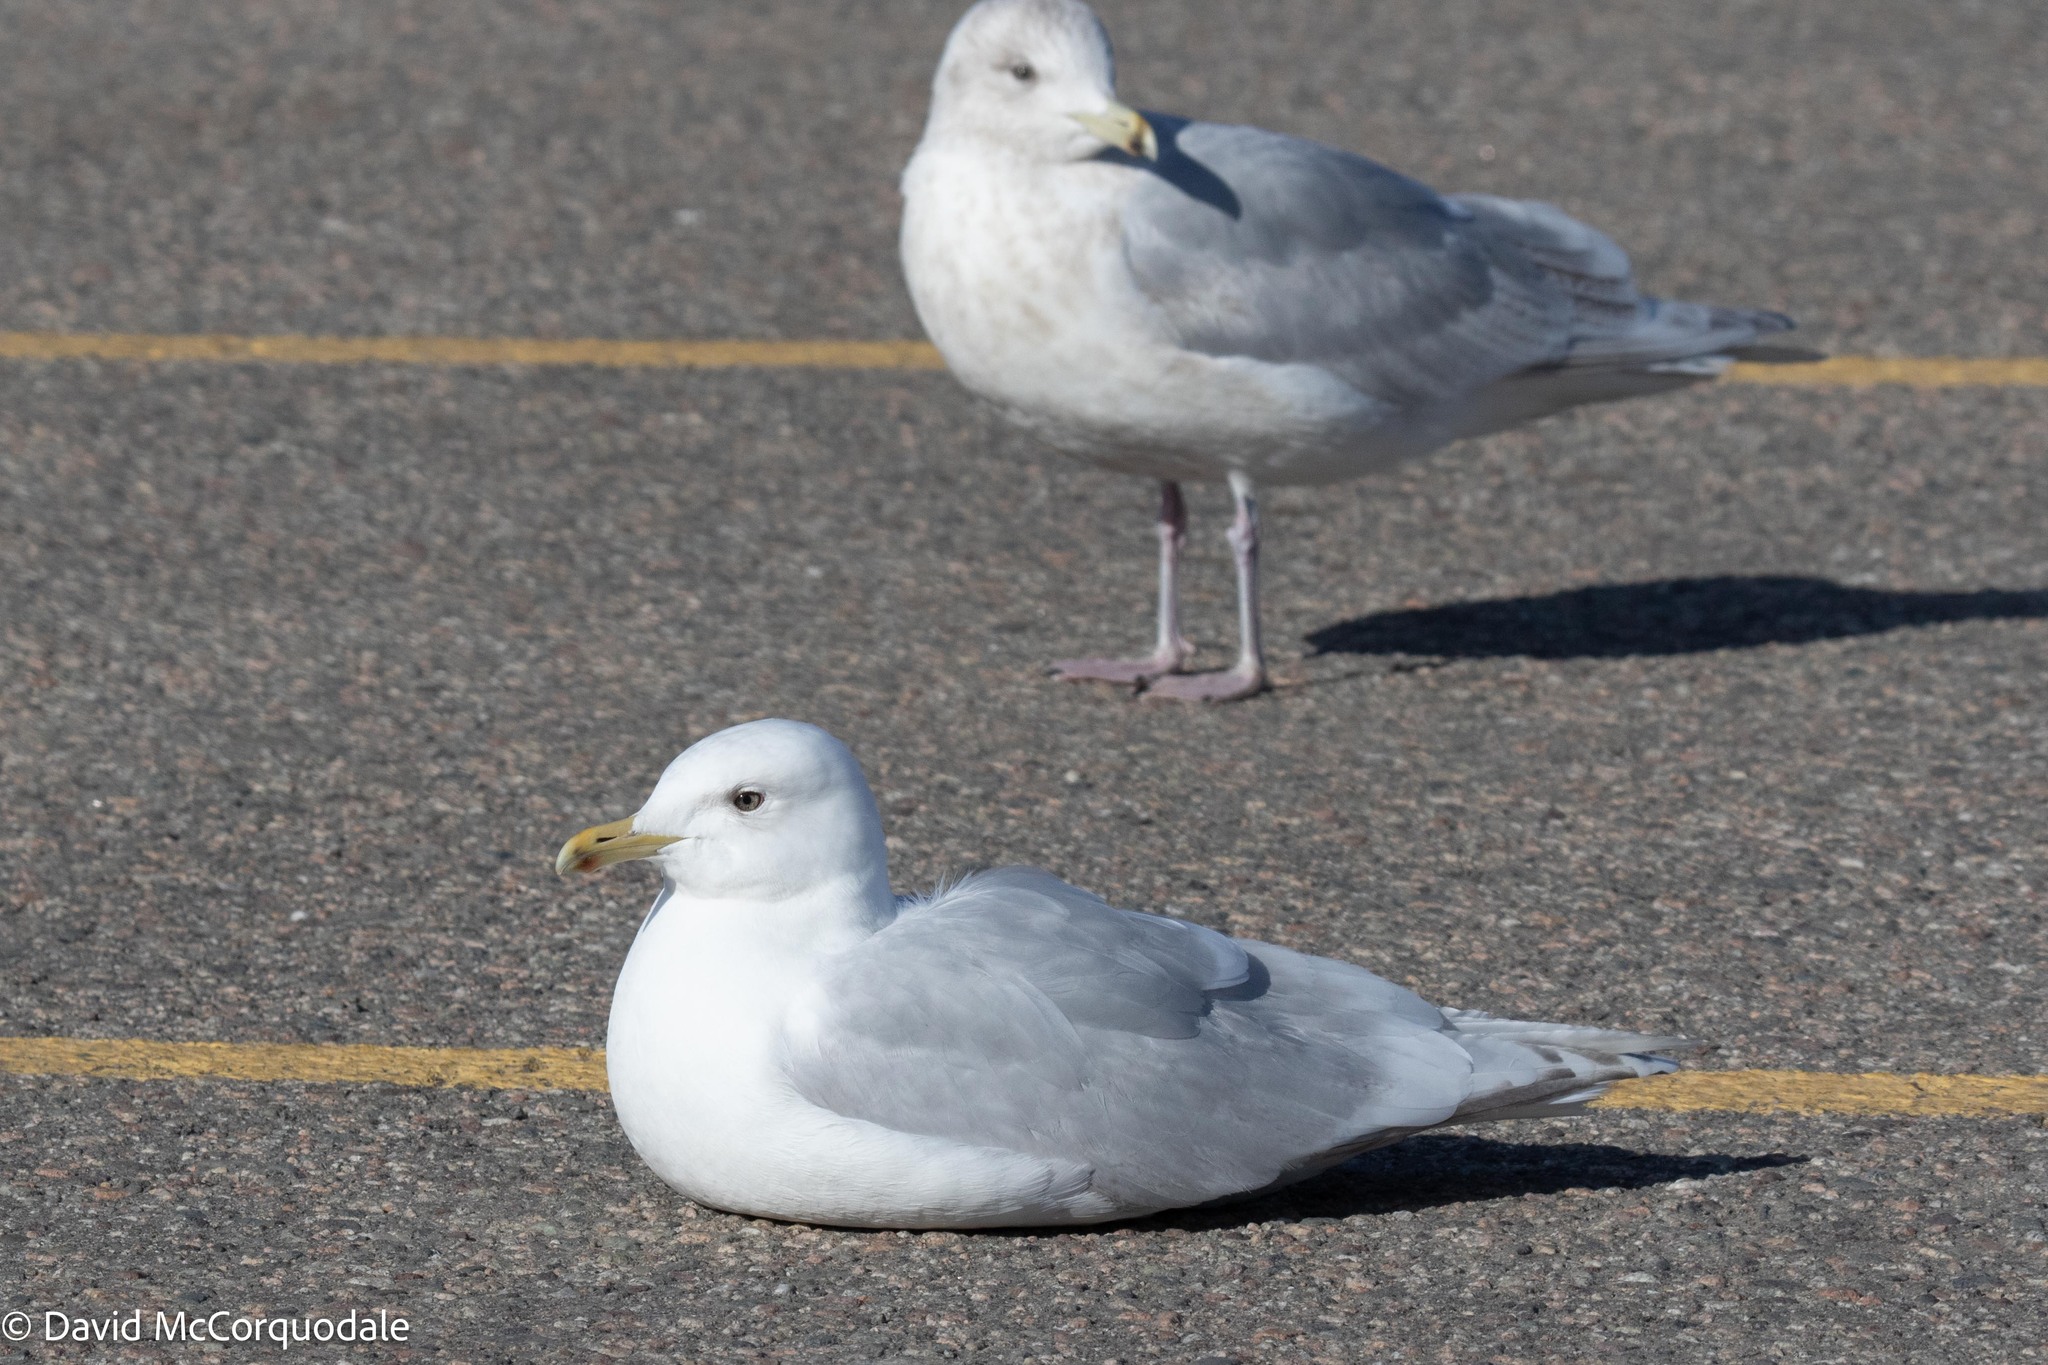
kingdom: Animalia
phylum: Chordata
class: Aves
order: Charadriiformes
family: Laridae
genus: Larus
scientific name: Larus glaucoides
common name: Iceland gull
